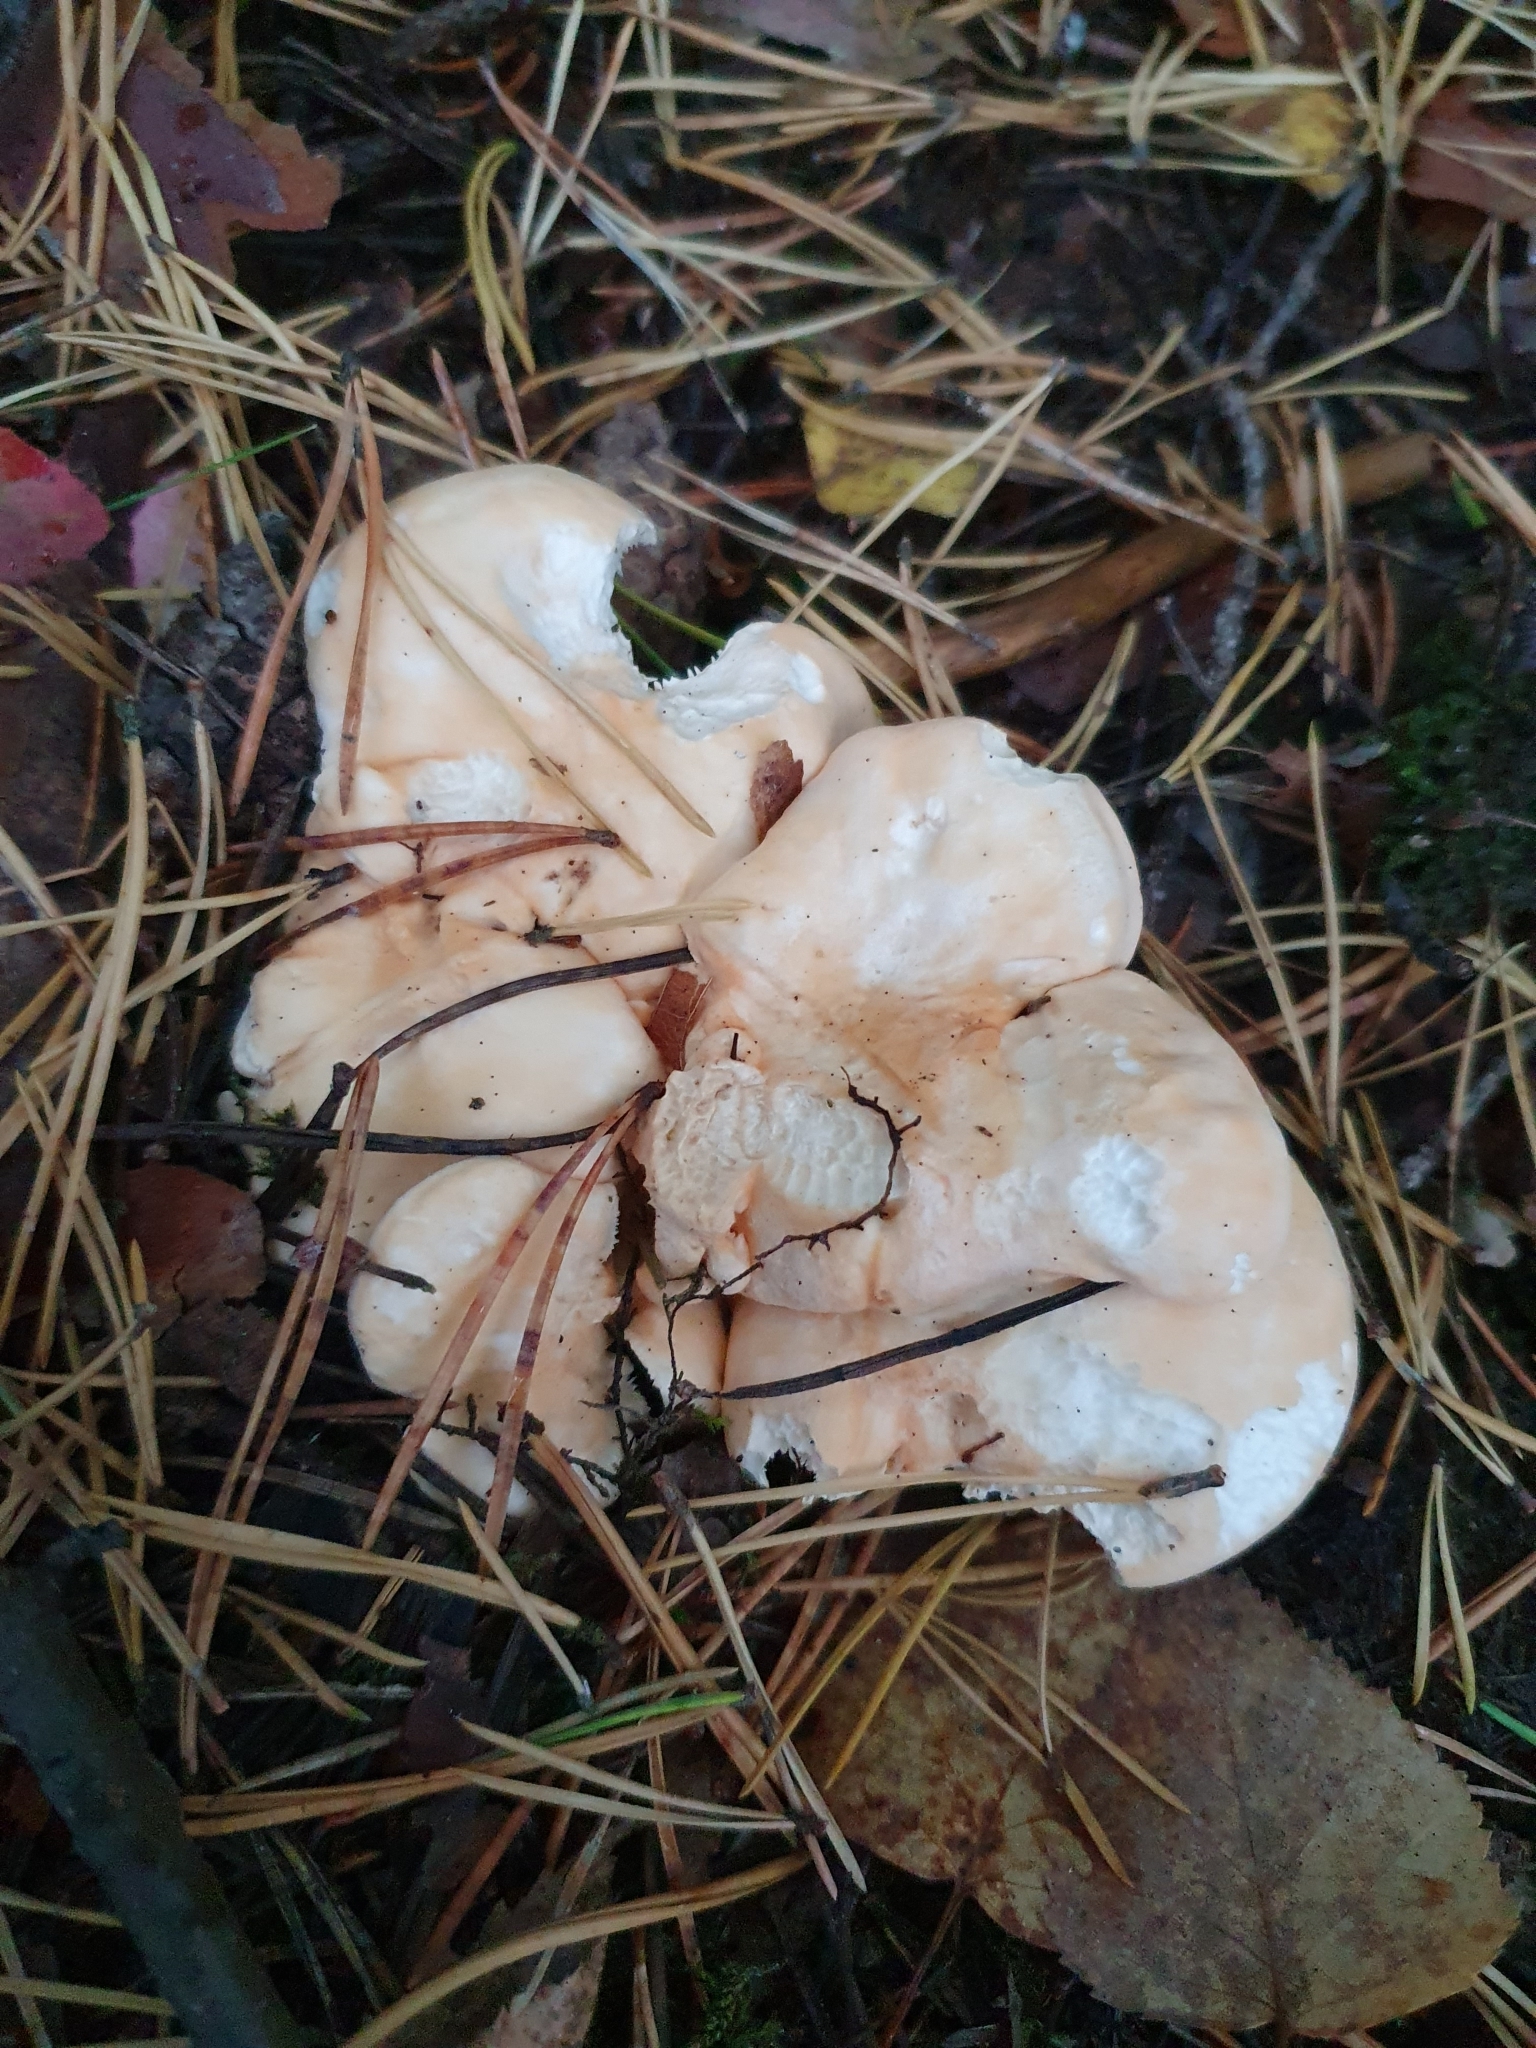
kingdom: Fungi
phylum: Basidiomycota
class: Agaricomycetes
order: Cantharellales
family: Hydnaceae
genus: Hydnum
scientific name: Hydnum repandum
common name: Wood hedgehog
